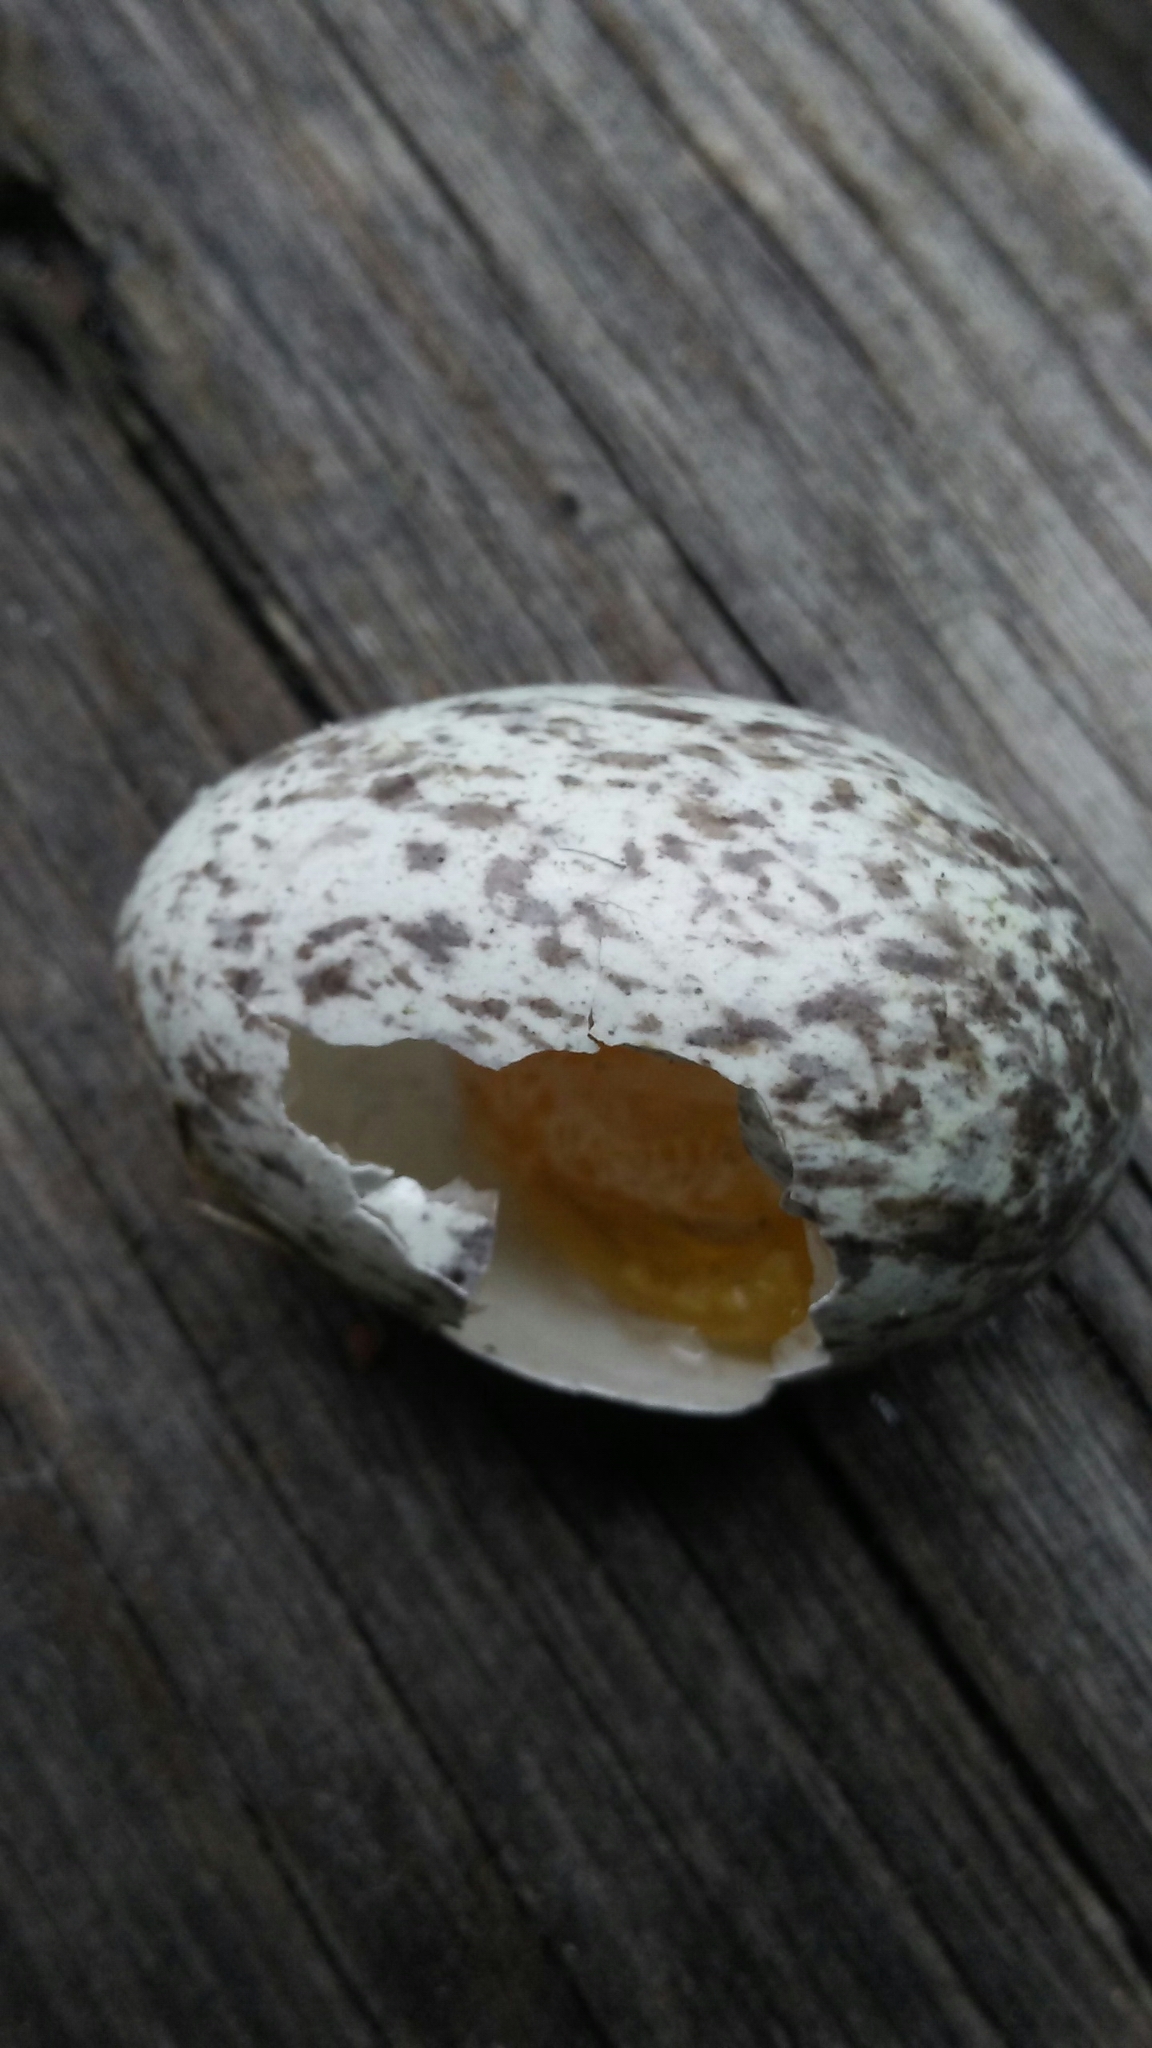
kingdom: Animalia
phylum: Chordata
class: Aves
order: Passeriformes
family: Passeridae
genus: Passer
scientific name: Passer domesticus
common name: House sparrow
